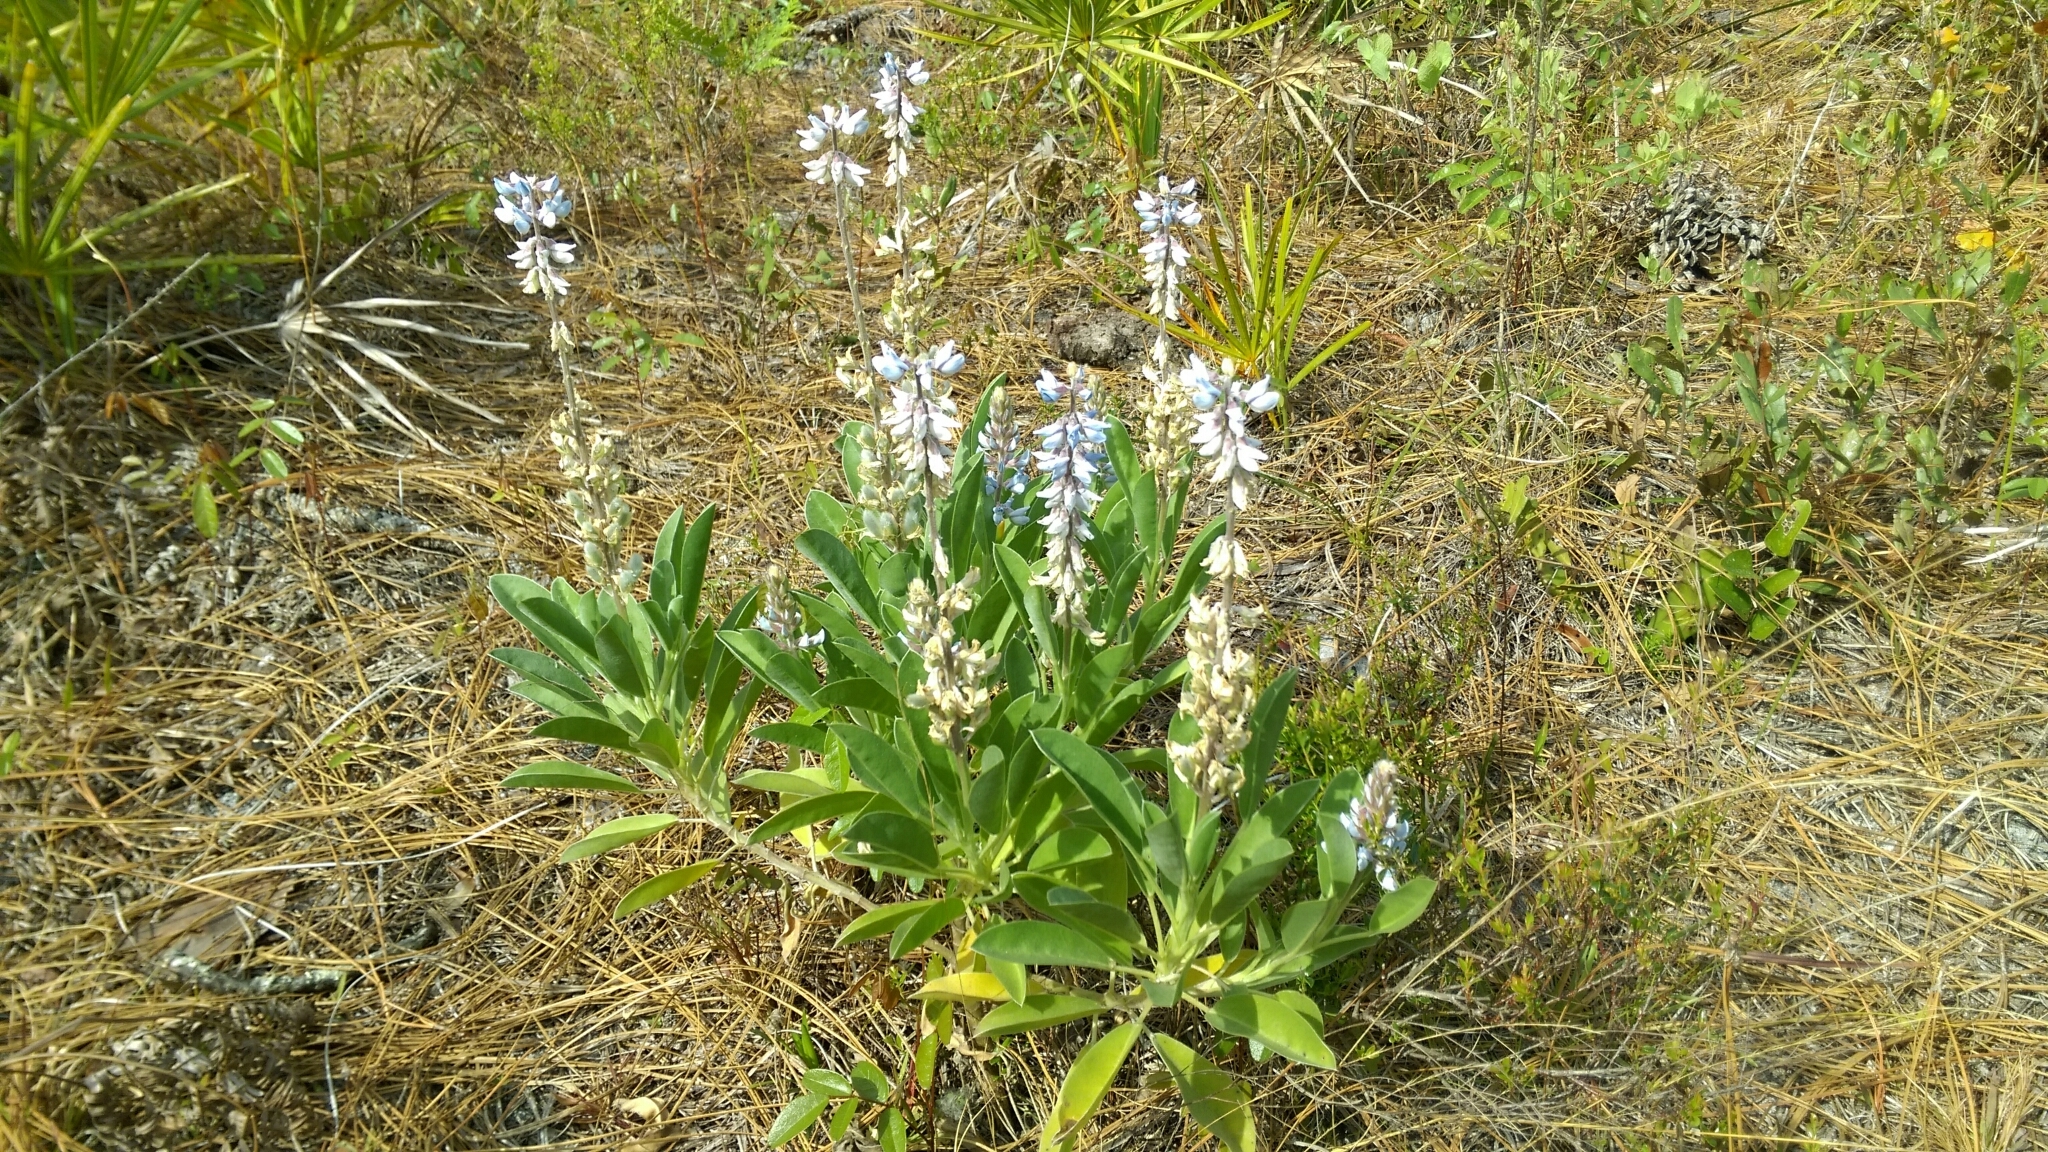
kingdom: Plantae
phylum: Tracheophyta
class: Magnoliopsida
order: Fabales
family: Fabaceae
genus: Lupinus
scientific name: Lupinus
